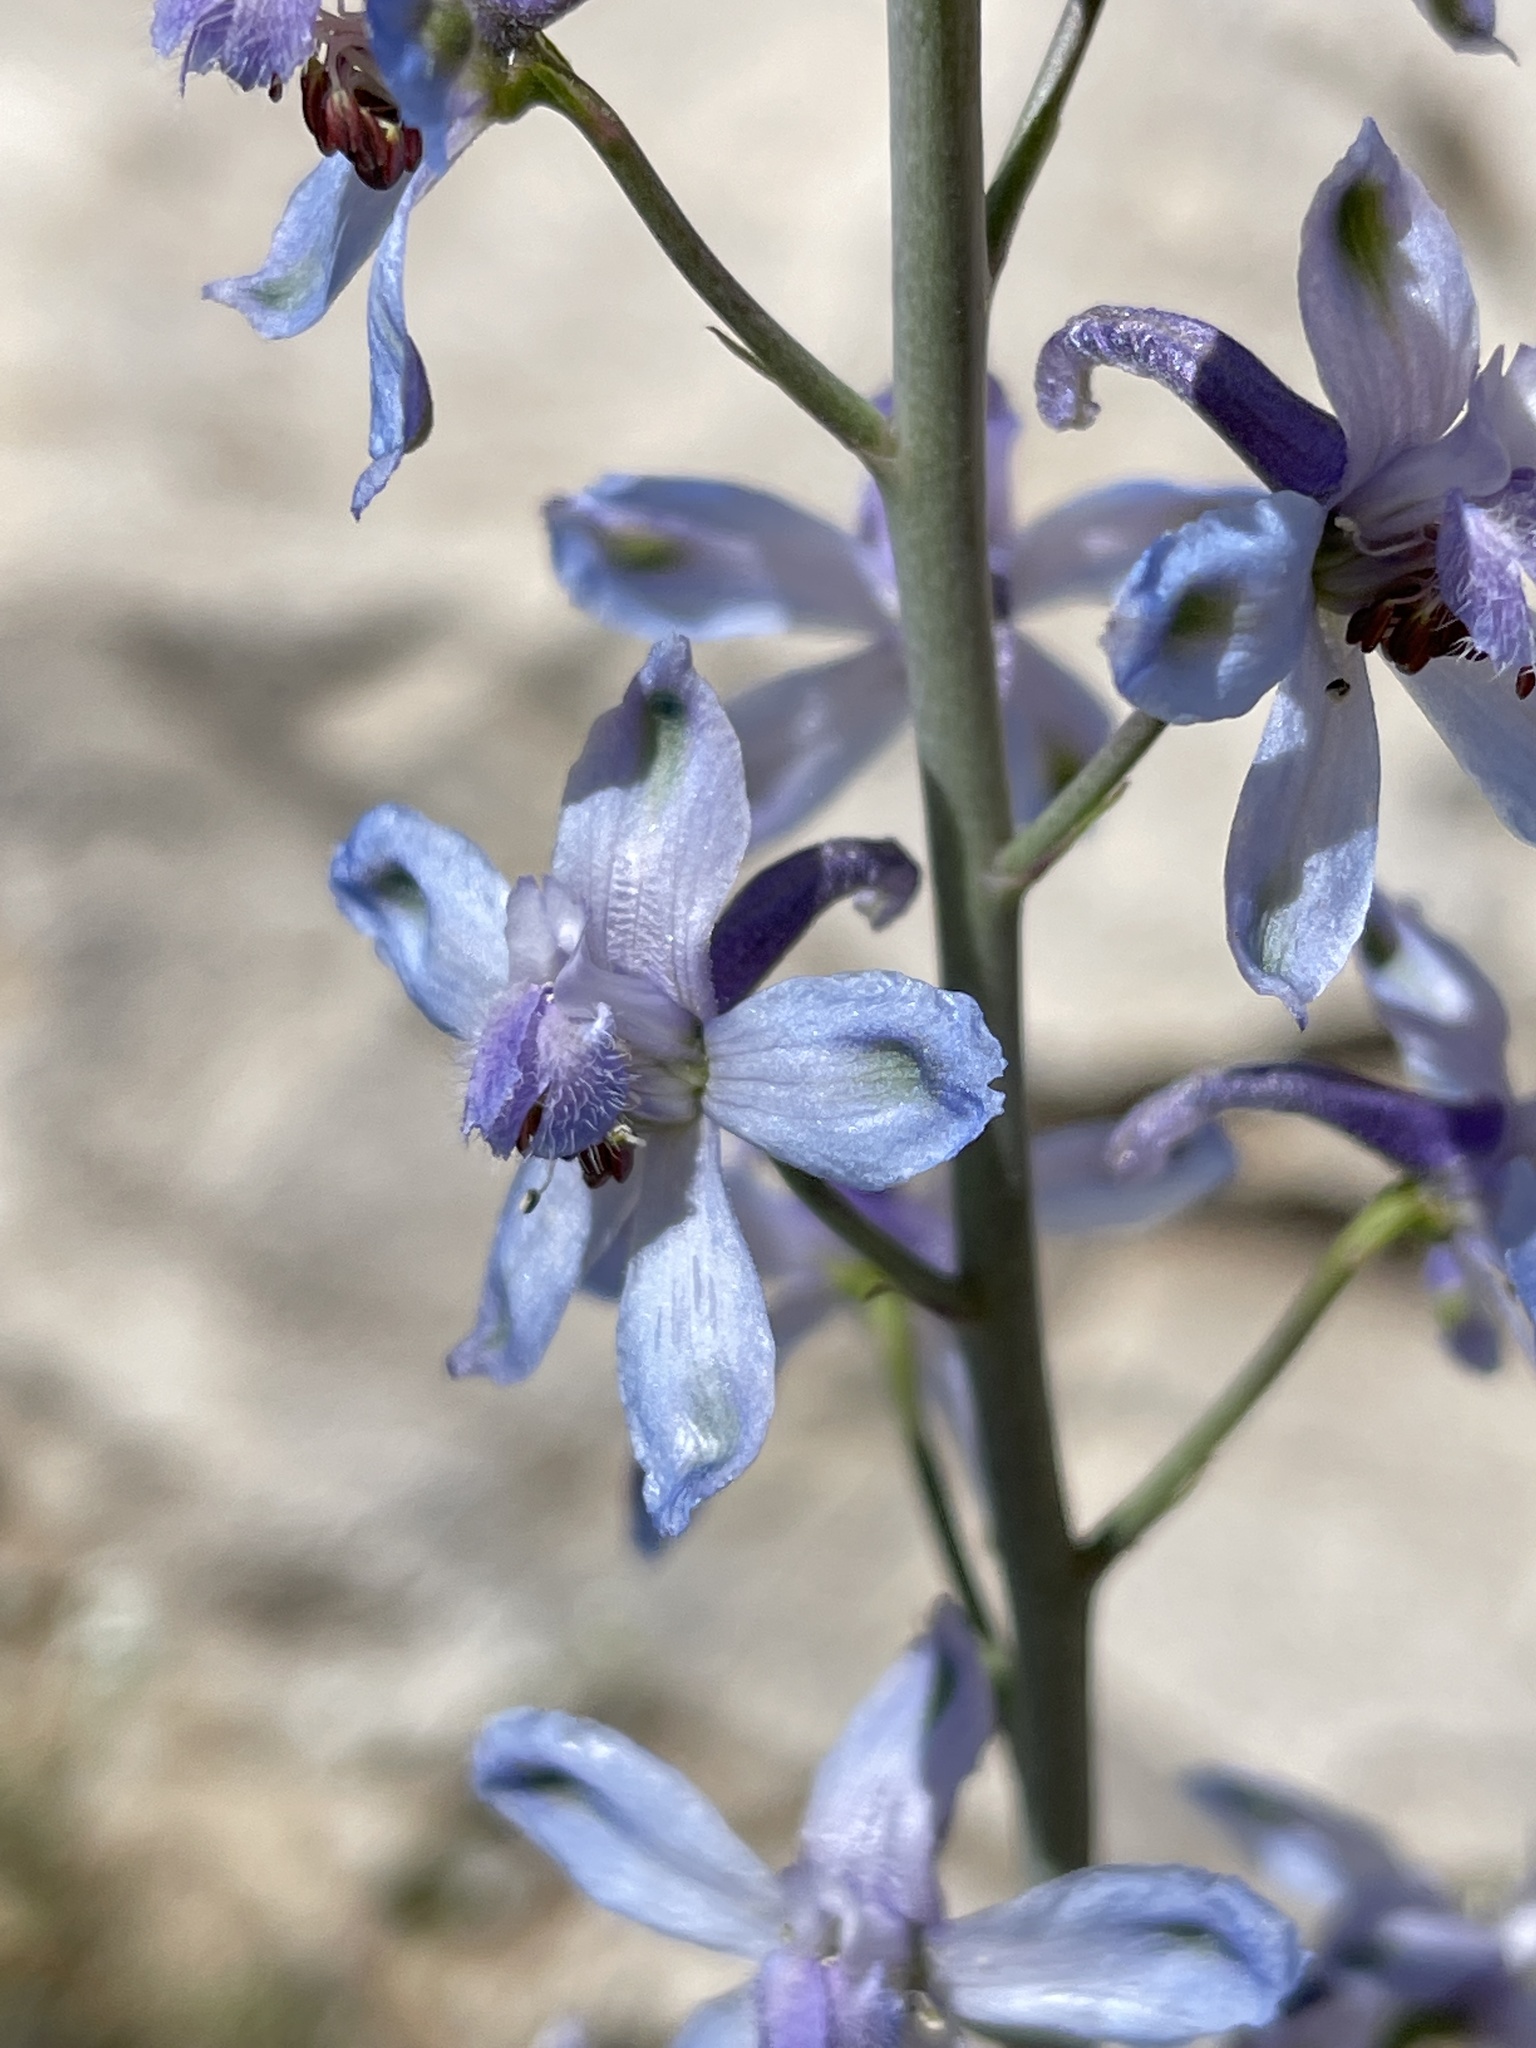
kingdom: Plantae
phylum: Tracheophyta
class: Magnoliopsida
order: Ranunculales
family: Ranunculaceae
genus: Delphinium
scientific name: Delphinium parishii
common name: Apache larkspur
